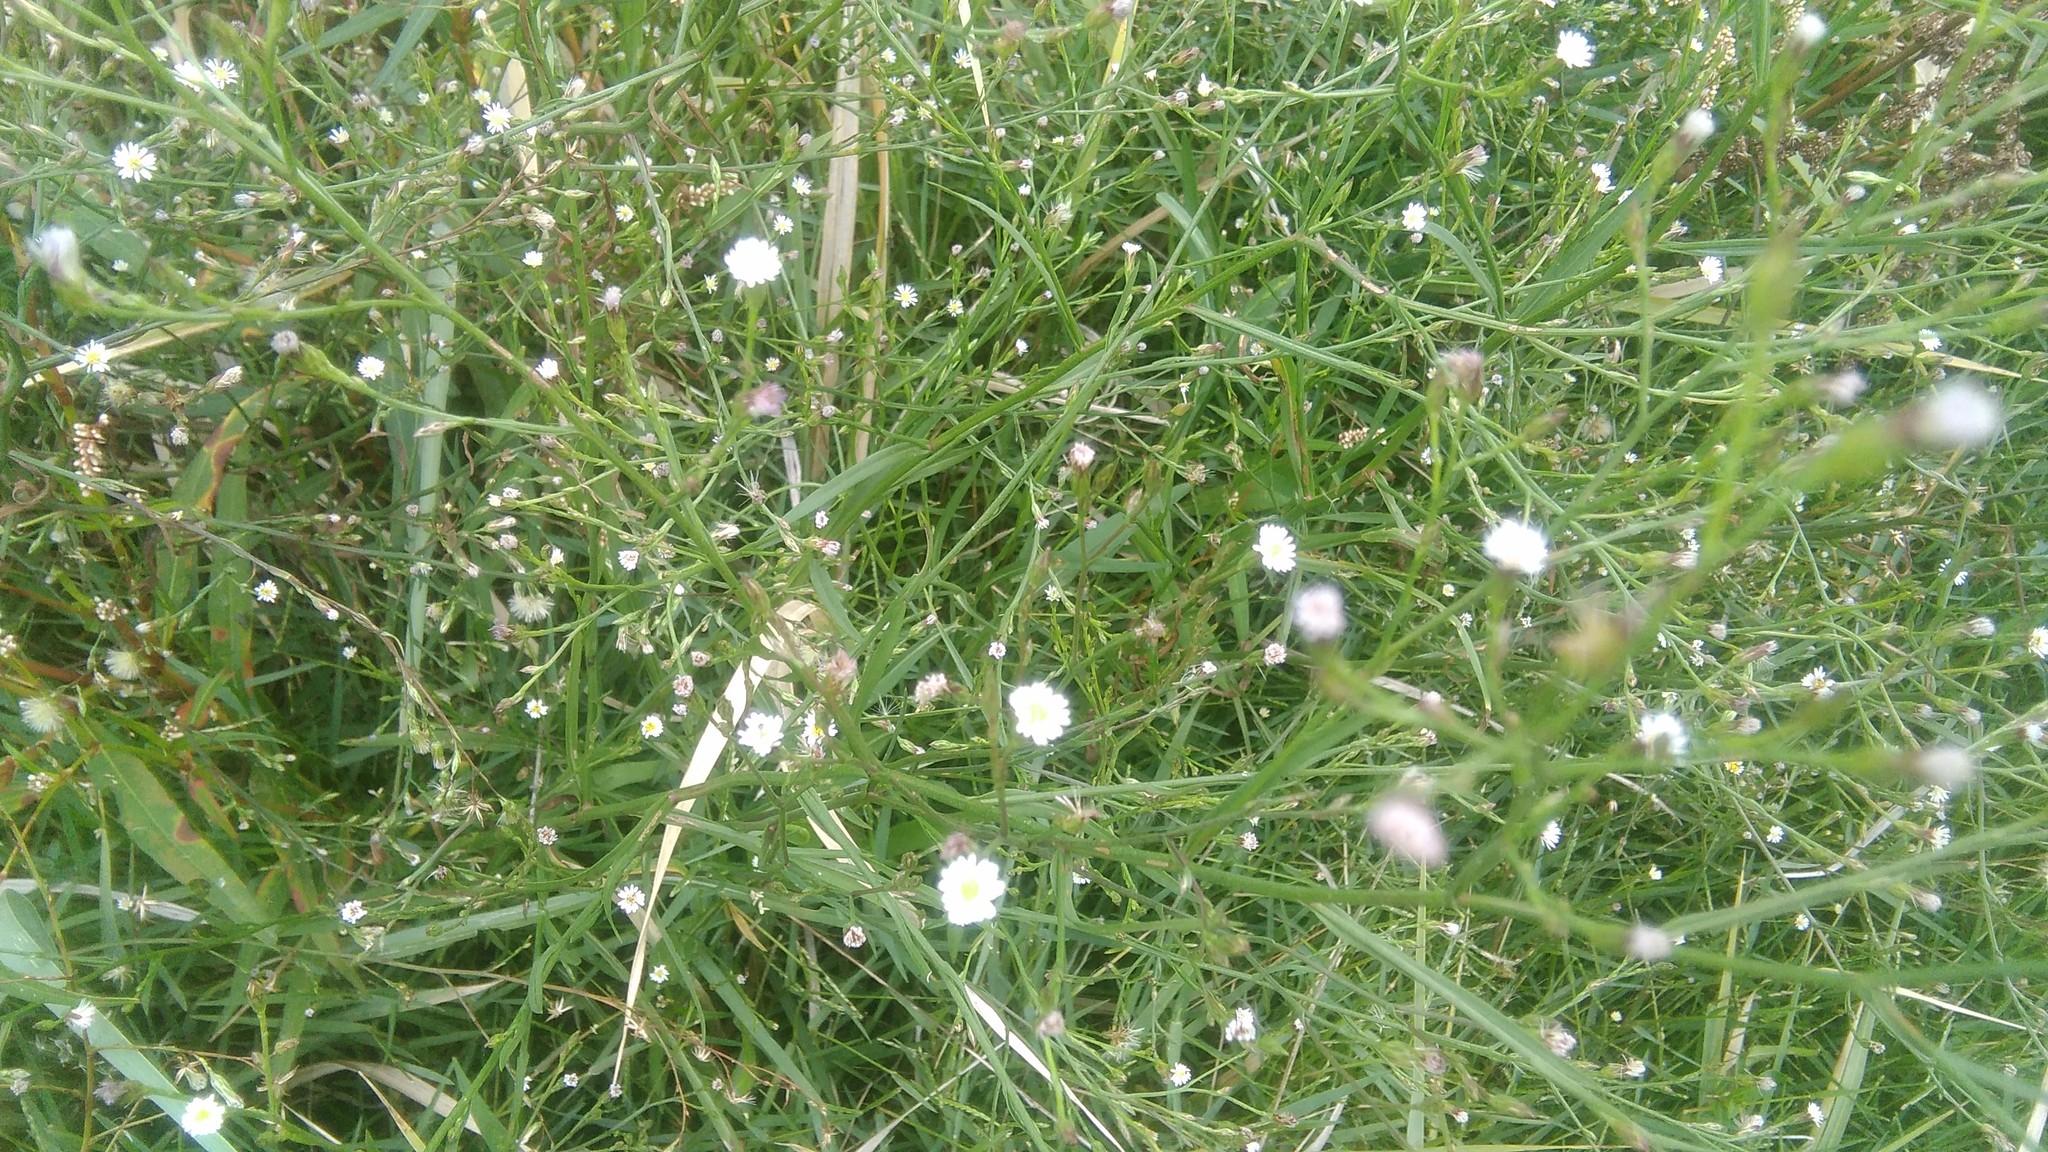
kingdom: Plantae
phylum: Tracheophyta
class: Magnoliopsida
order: Asterales
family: Asteraceae
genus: Symphyotrichum
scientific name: Symphyotrichum squamatum
